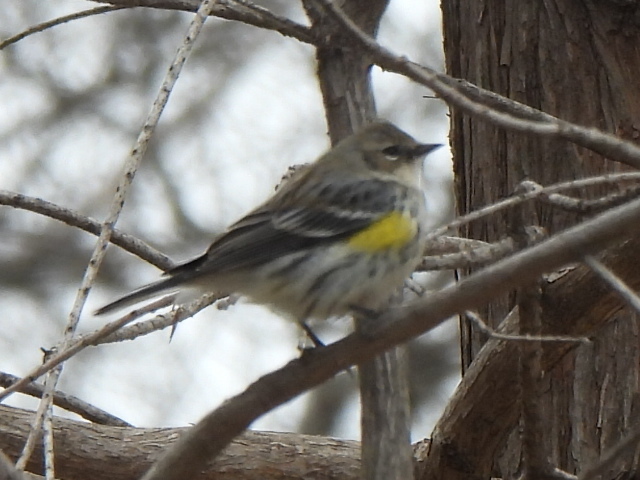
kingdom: Animalia
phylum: Chordata
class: Aves
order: Passeriformes
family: Parulidae
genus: Setophaga
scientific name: Setophaga coronata
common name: Myrtle warbler
